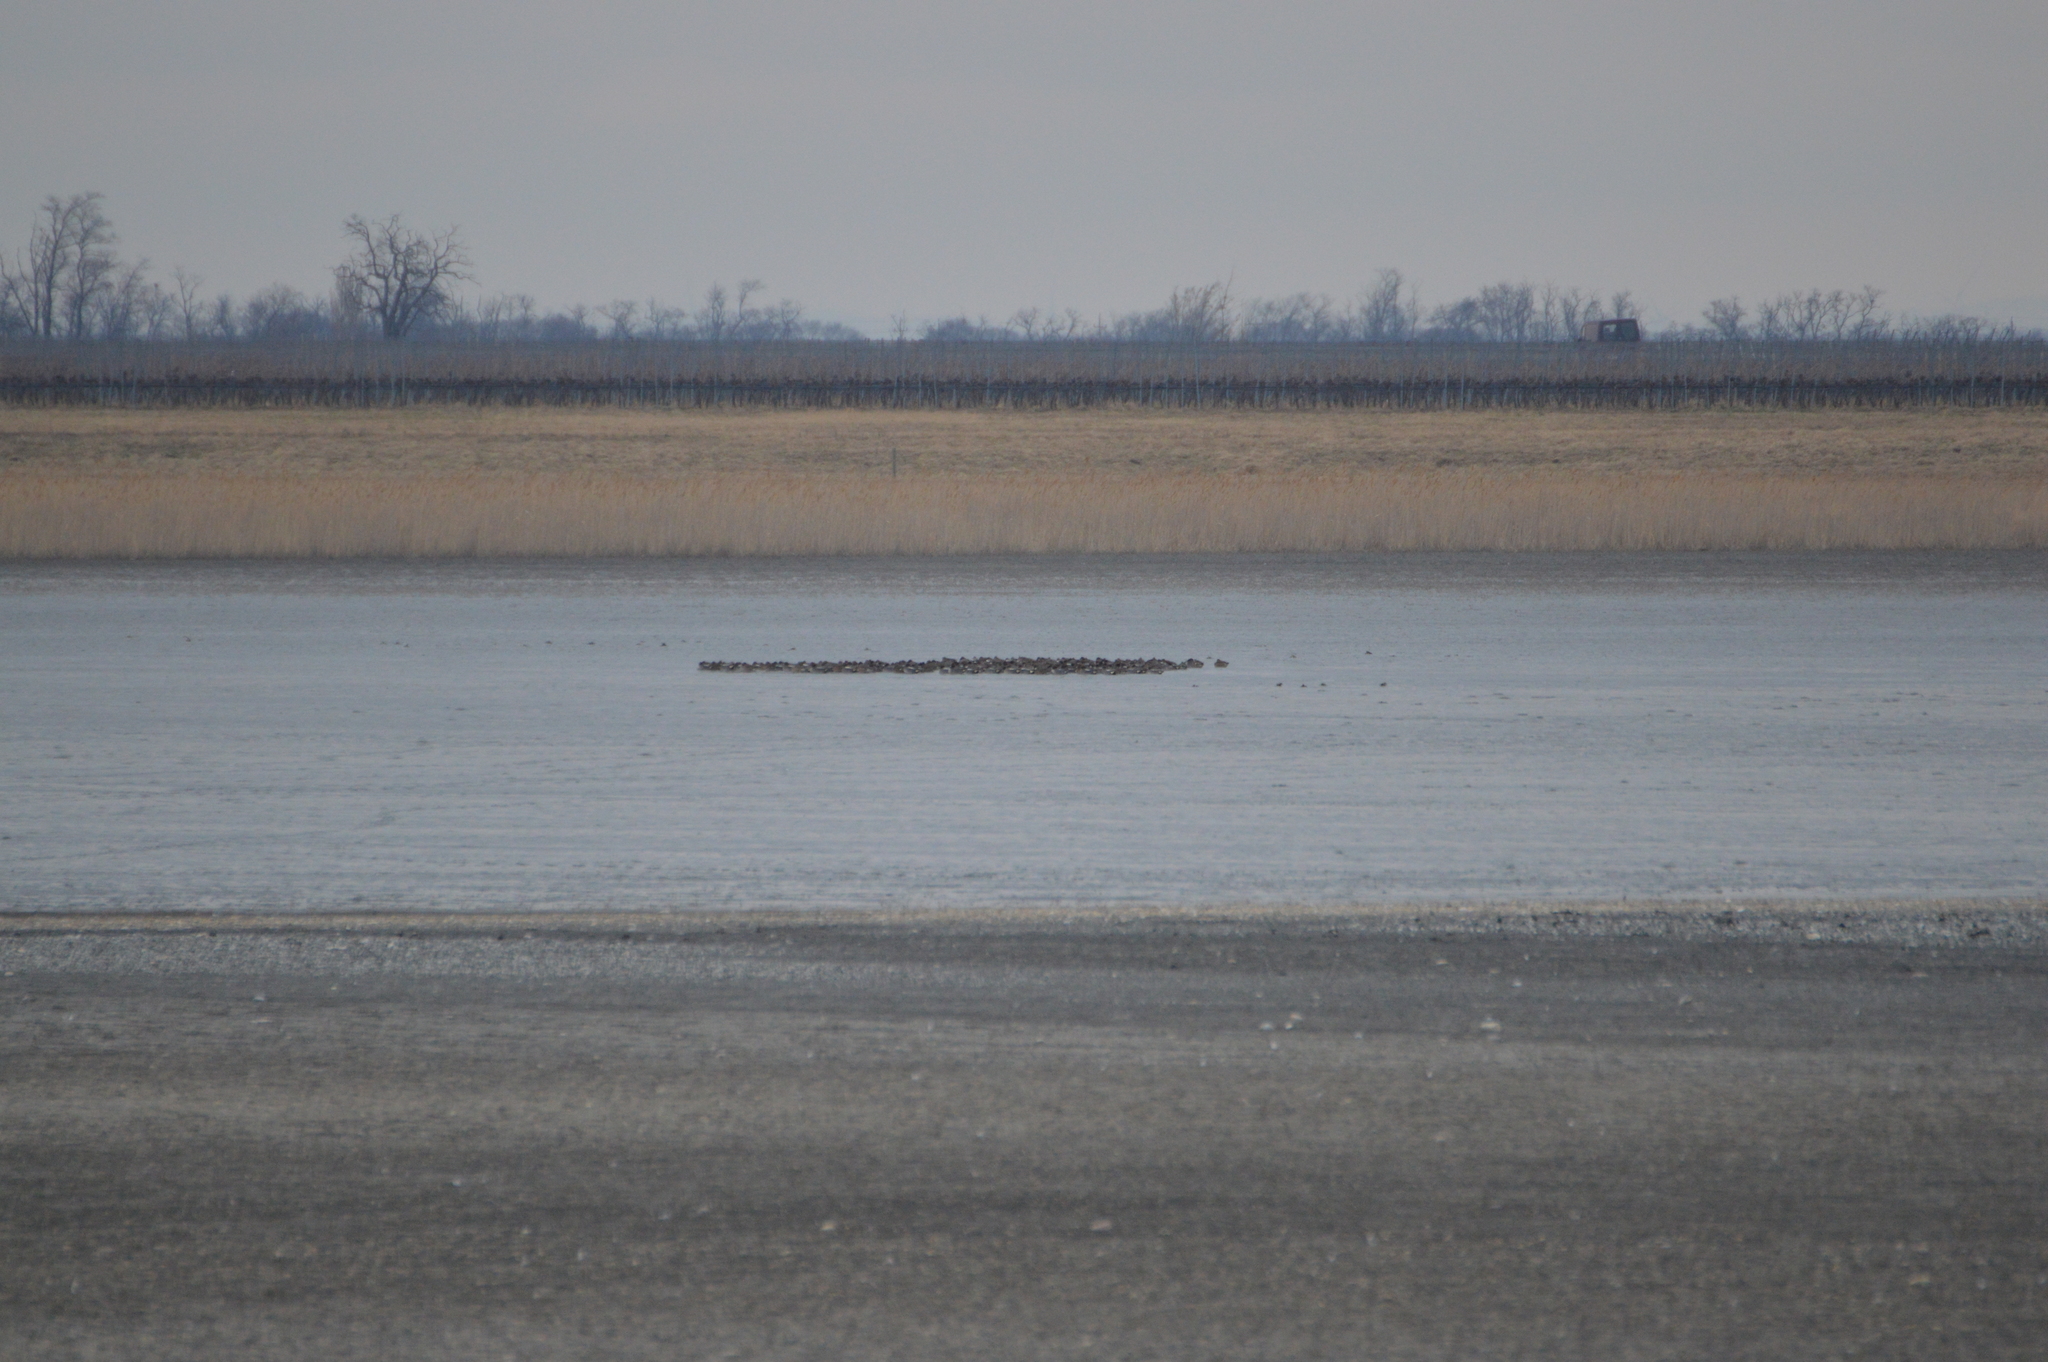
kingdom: Animalia
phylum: Chordata
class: Aves
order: Anseriformes
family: Anatidae
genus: Anas
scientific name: Anas crecca
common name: Eurasian teal
